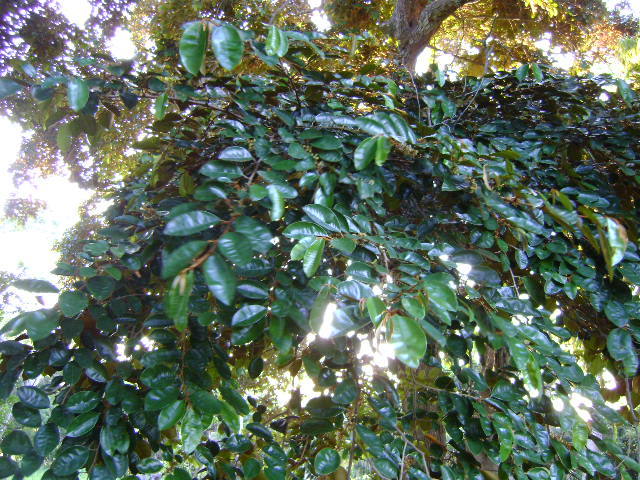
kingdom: Plantae
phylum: Tracheophyta
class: Magnoliopsida
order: Ericales
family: Sapotaceae
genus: Chrysophyllum
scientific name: Chrysophyllum mexicanum
